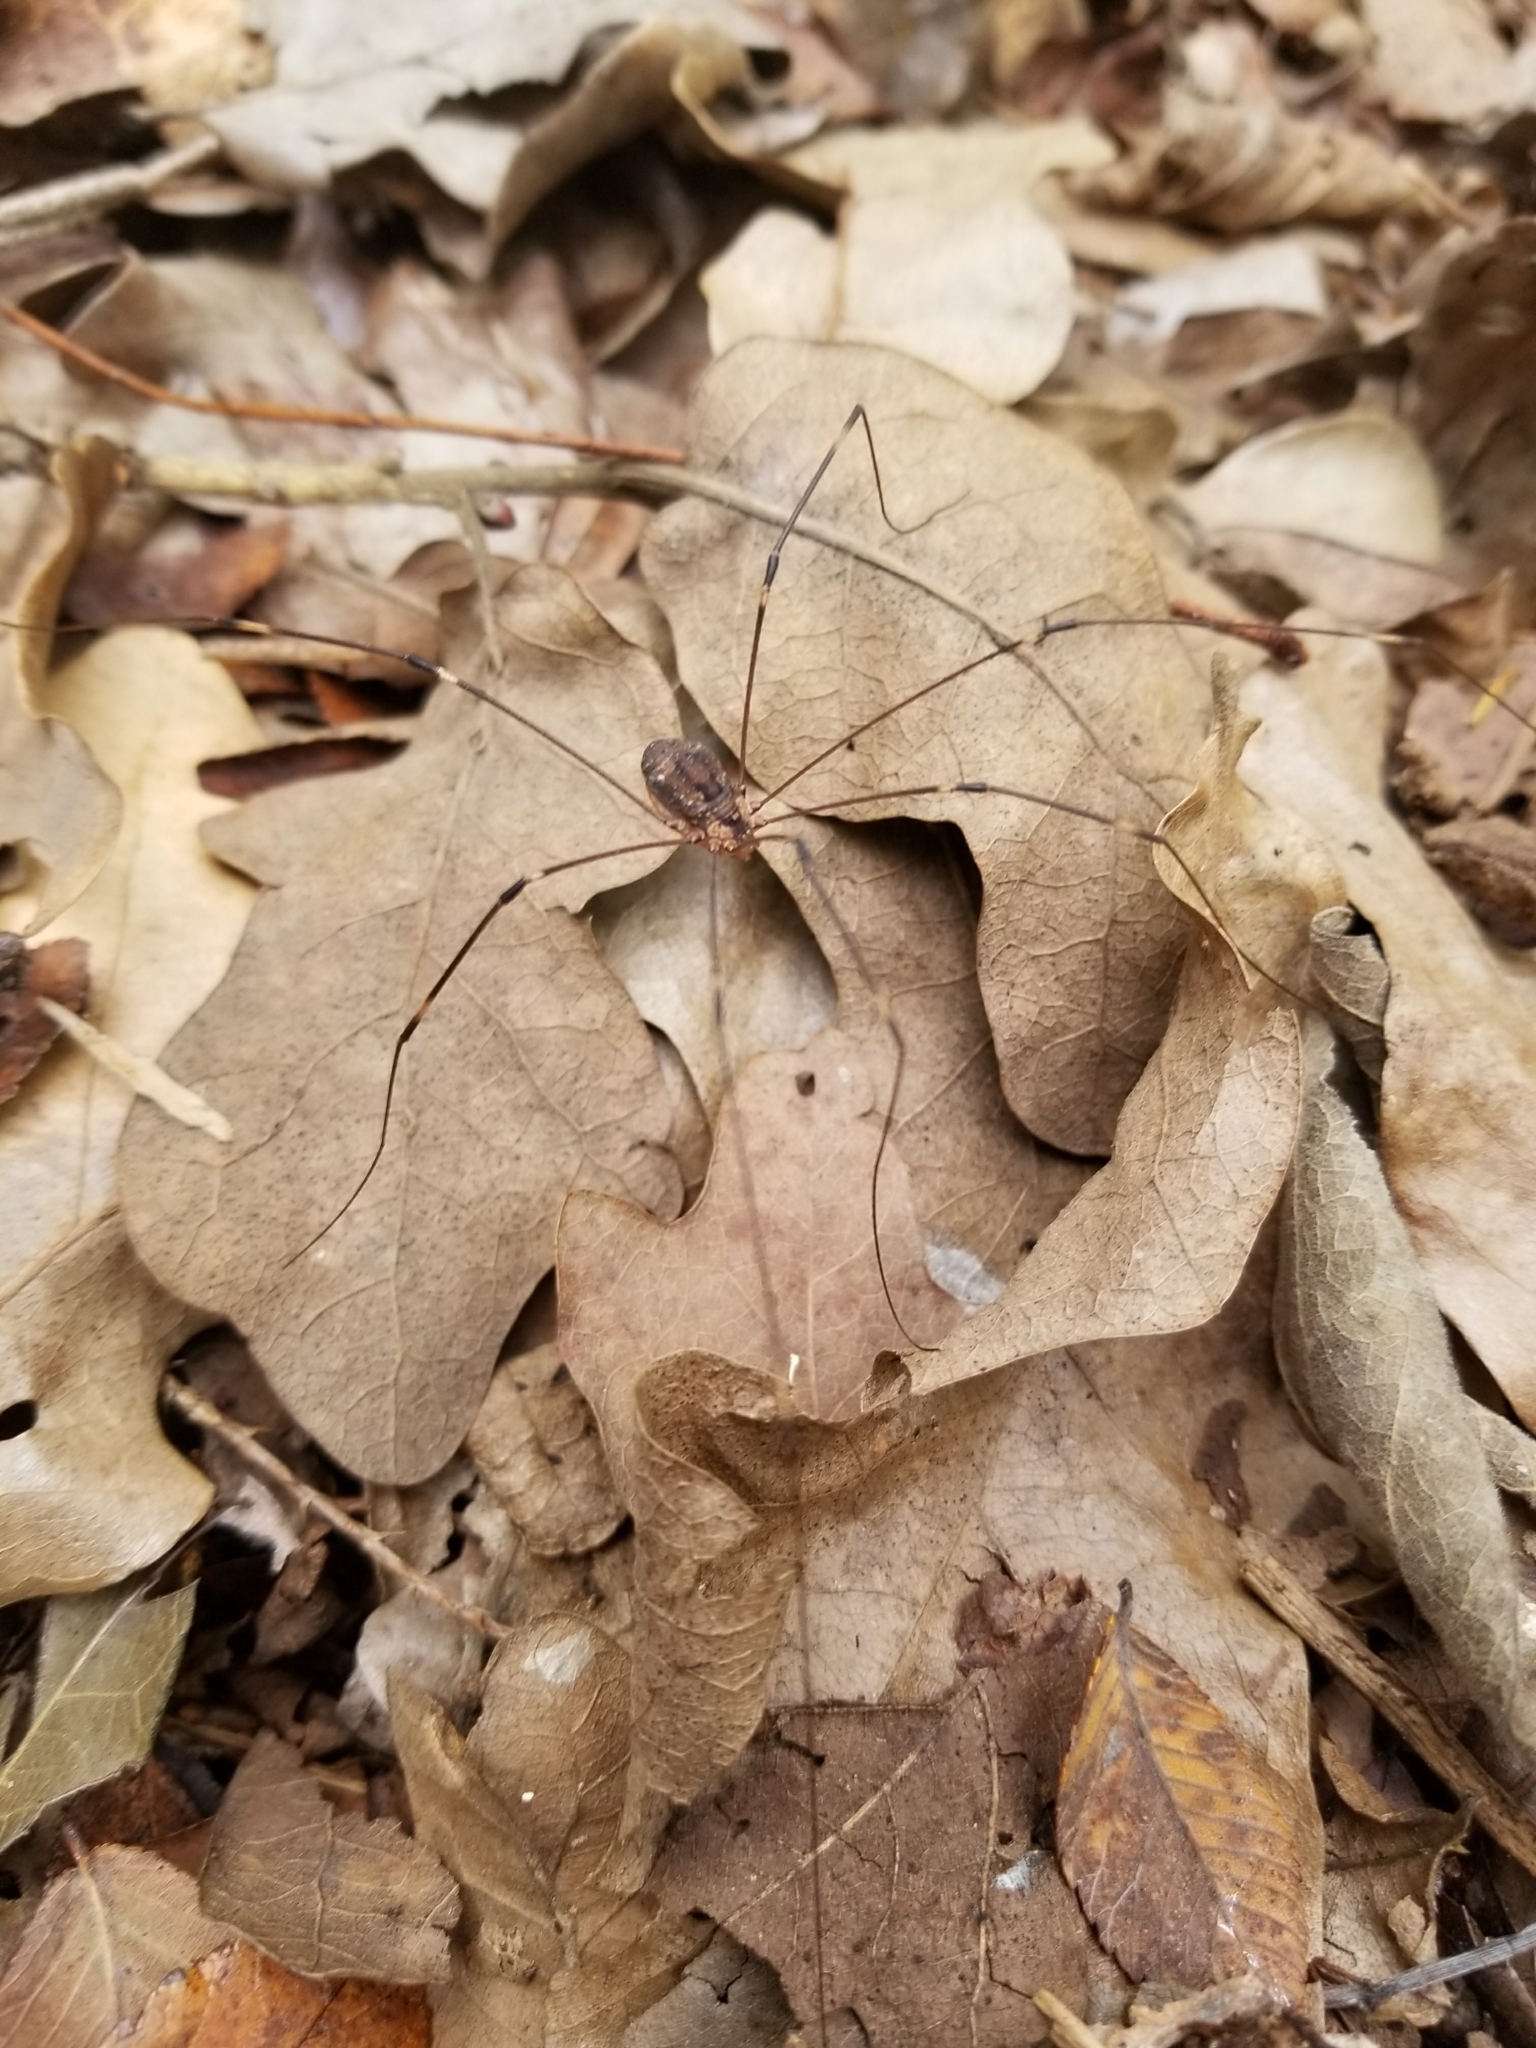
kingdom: Animalia
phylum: Arthropoda
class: Arachnida
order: Opiliones
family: Sclerosomatidae
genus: Leiobunum
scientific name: Leiobunum townsendi
